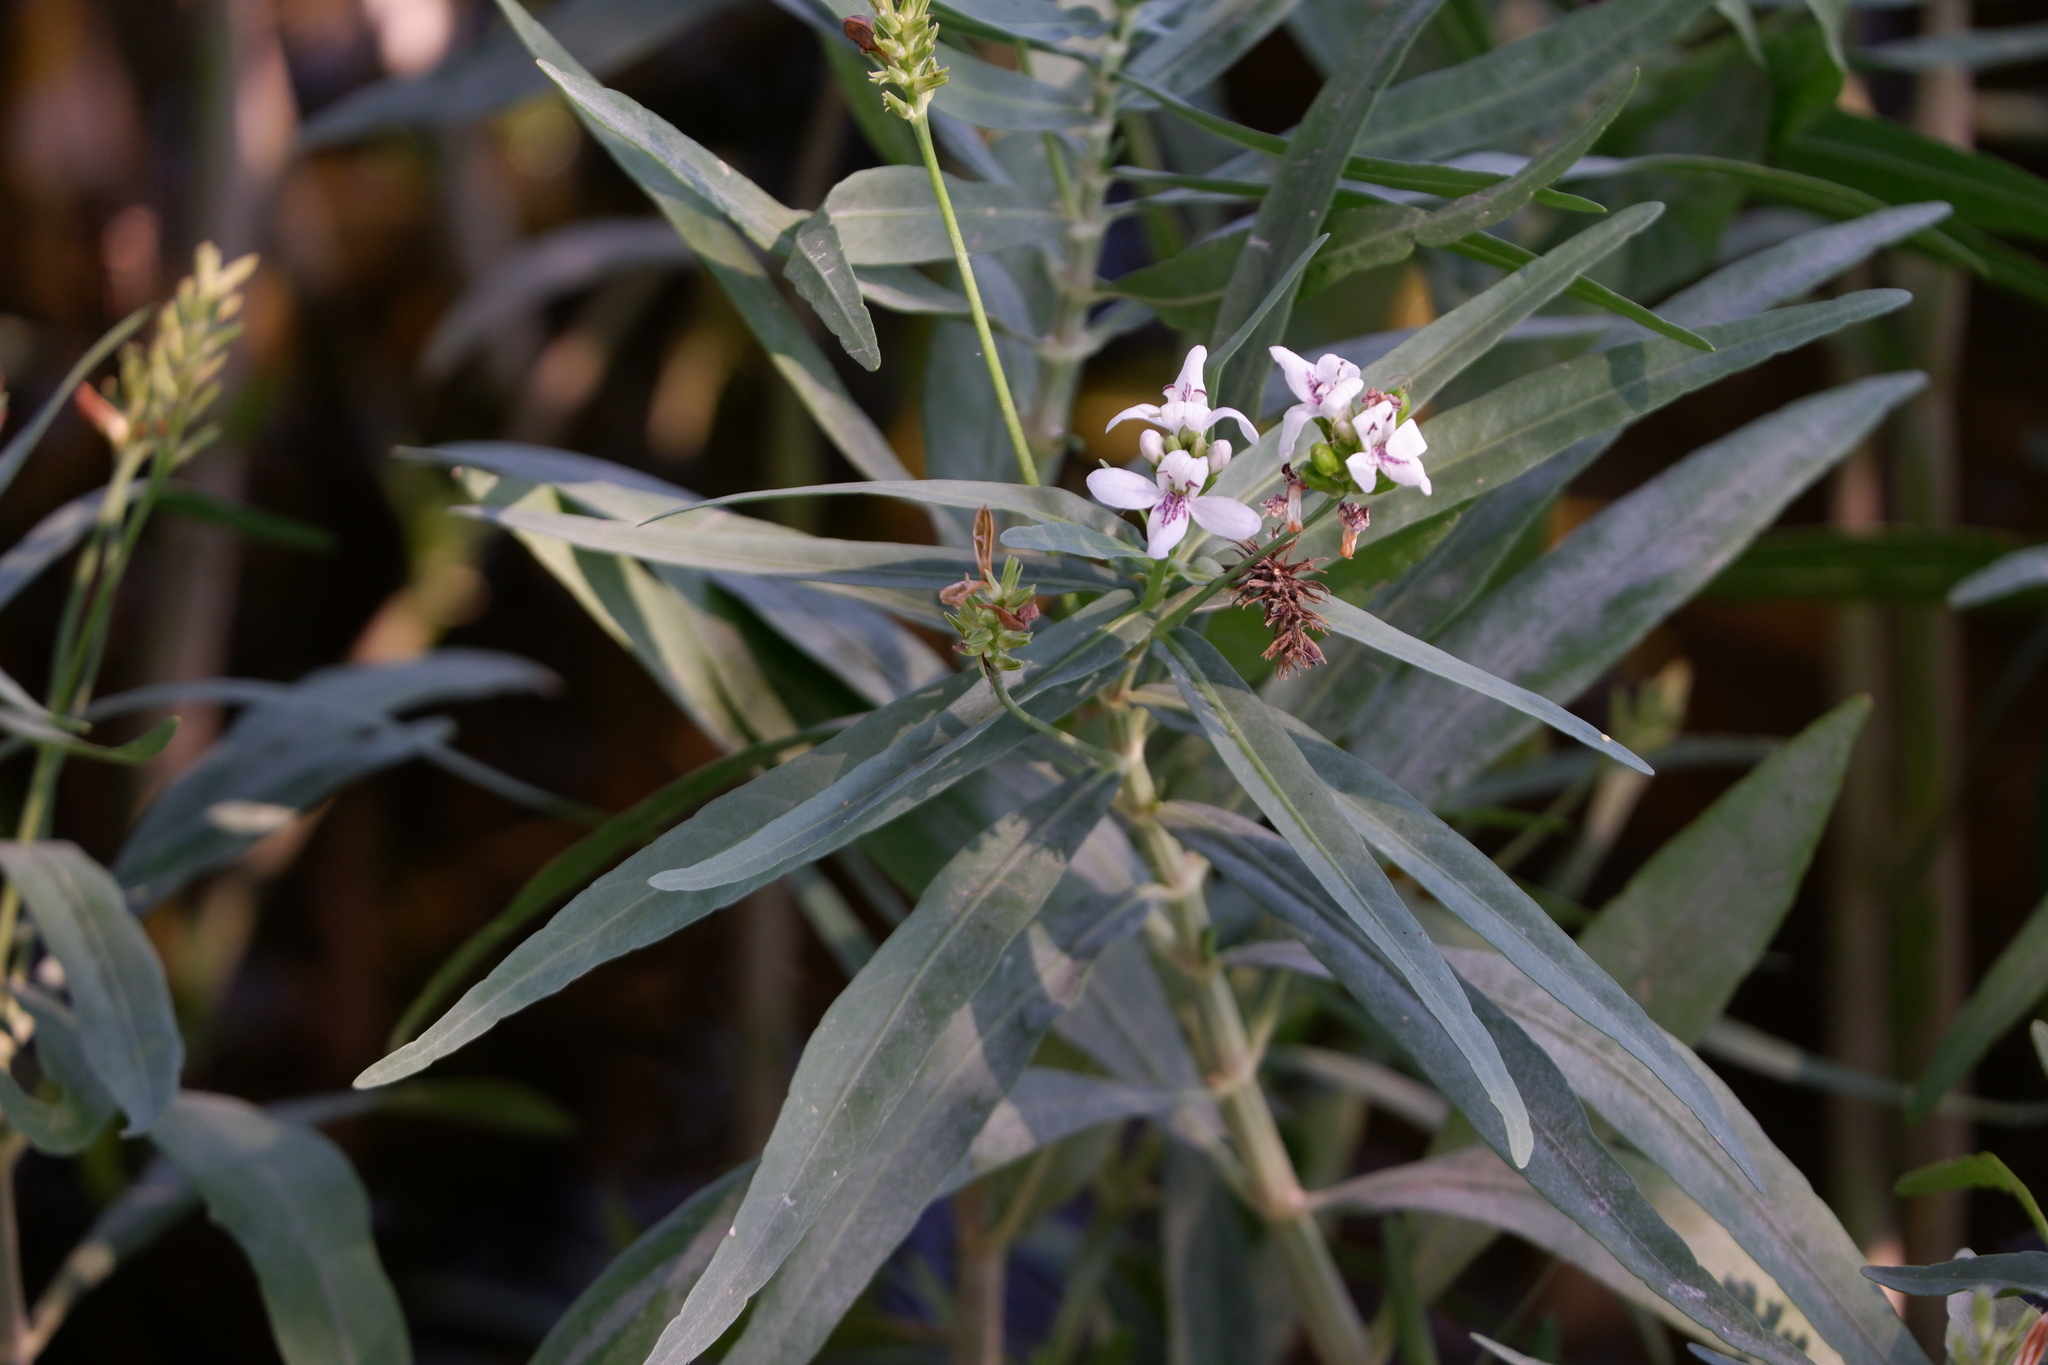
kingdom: Plantae
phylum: Tracheophyta
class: Magnoliopsida
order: Lamiales
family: Acanthaceae
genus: Dianthera
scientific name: Dianthera americana
